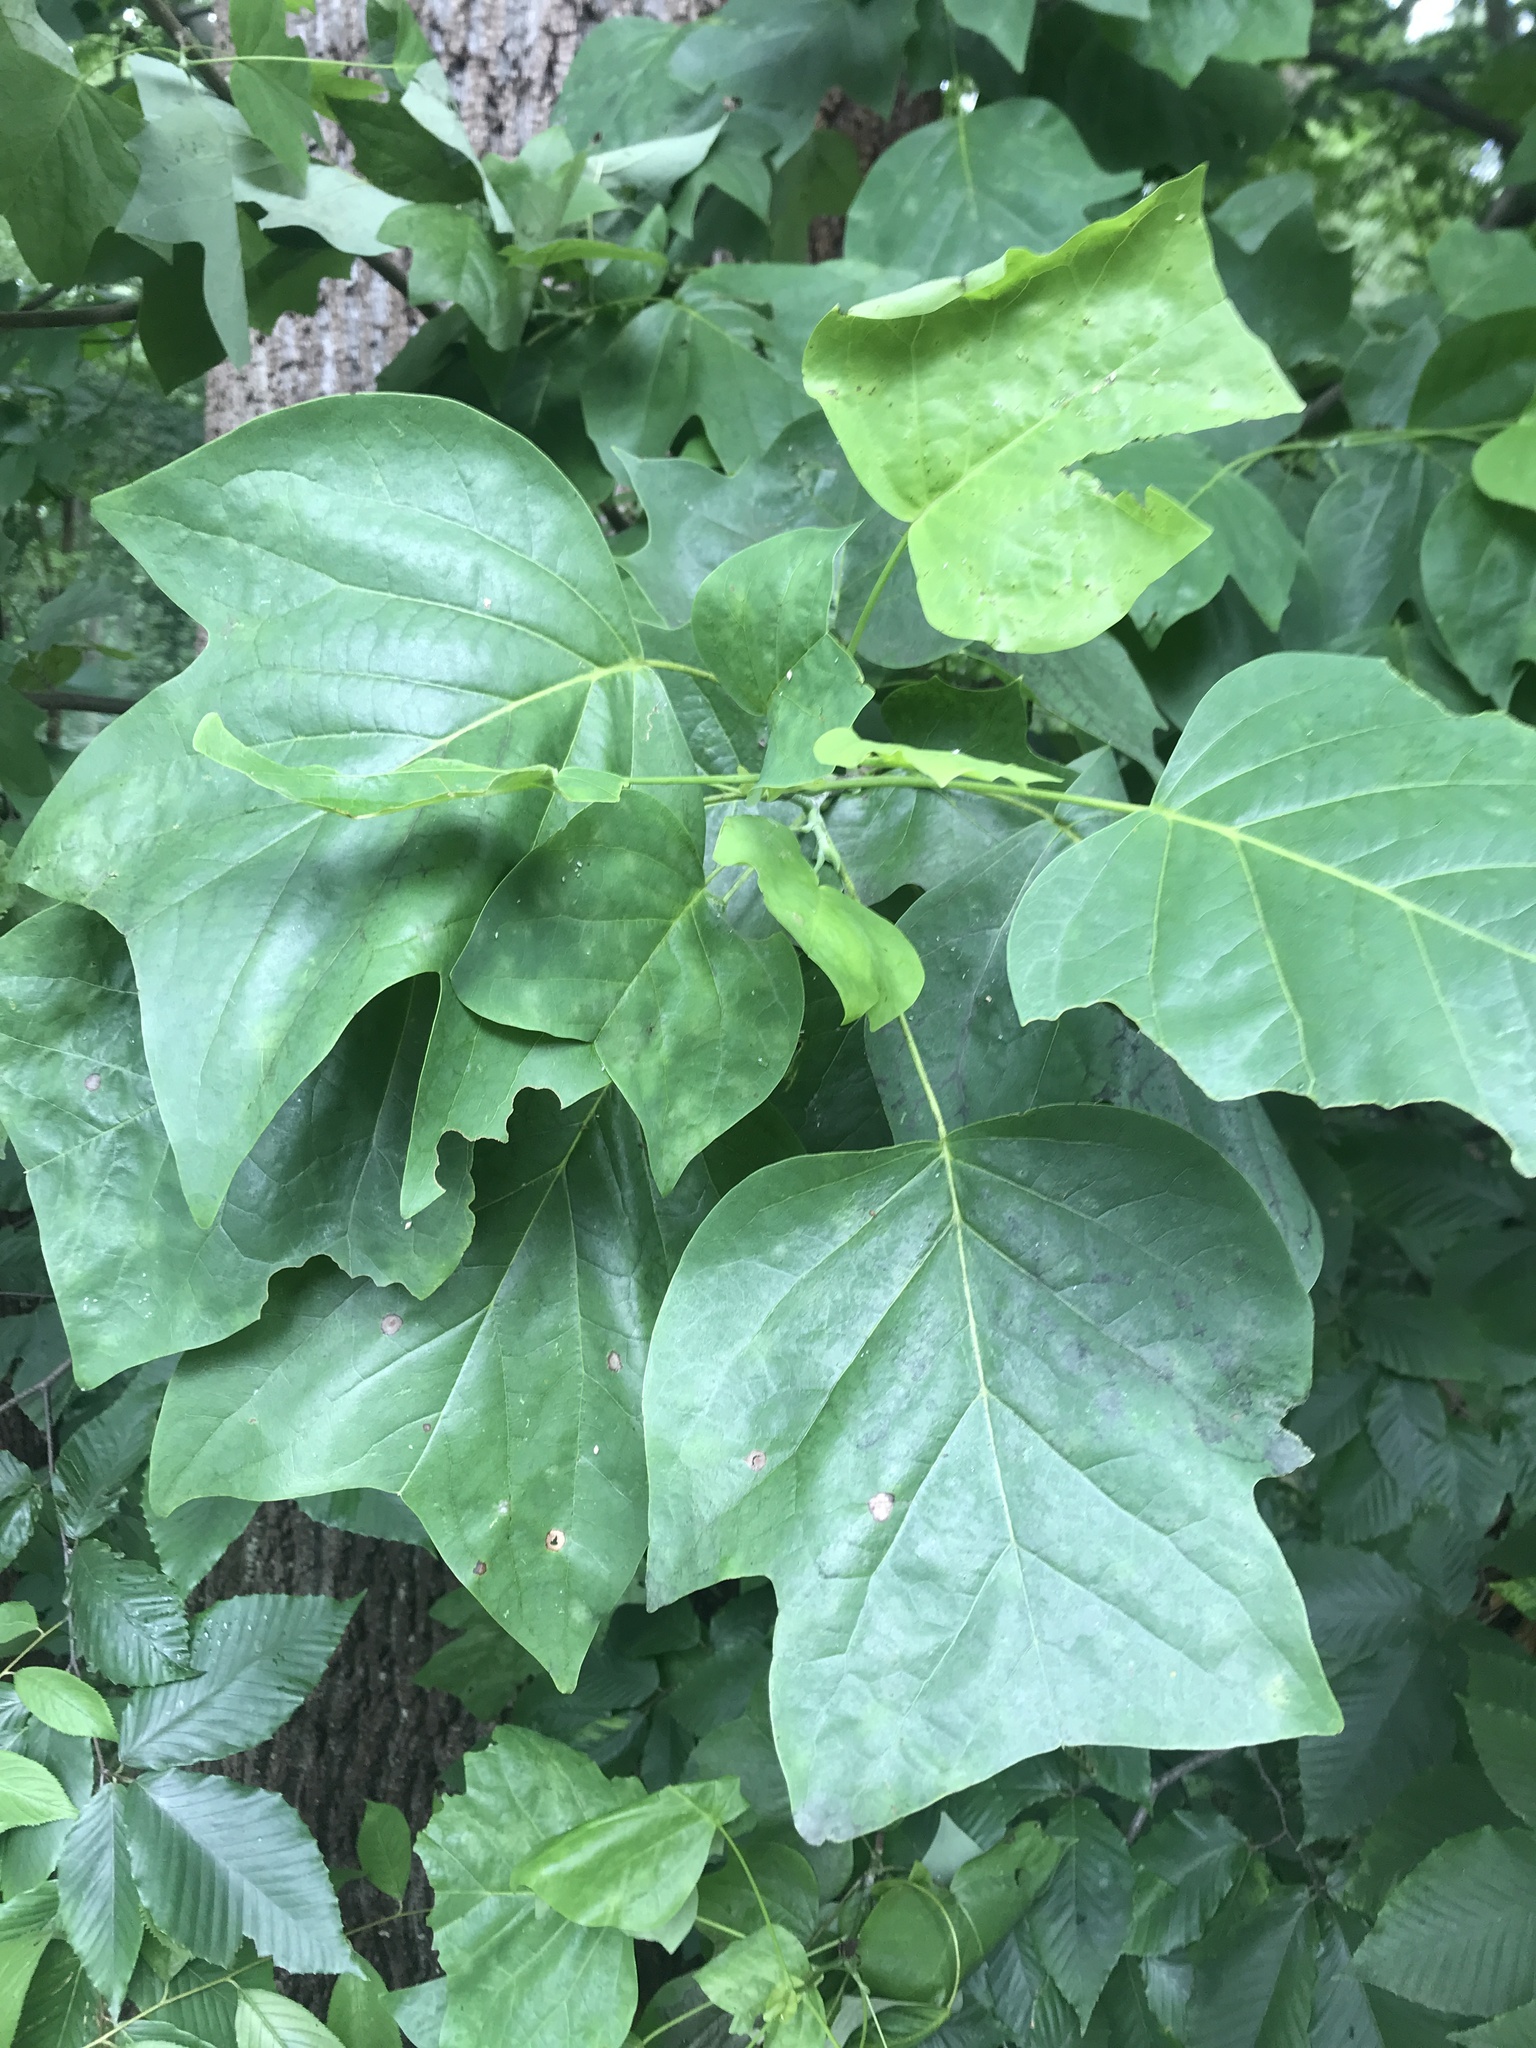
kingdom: Plantae
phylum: Tracheophyta
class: Magnoliopsida
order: Magnoliales
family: Magnoliaceae
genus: Liriodendron
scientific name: Liriodendron tulipifera
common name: Tulip tree
